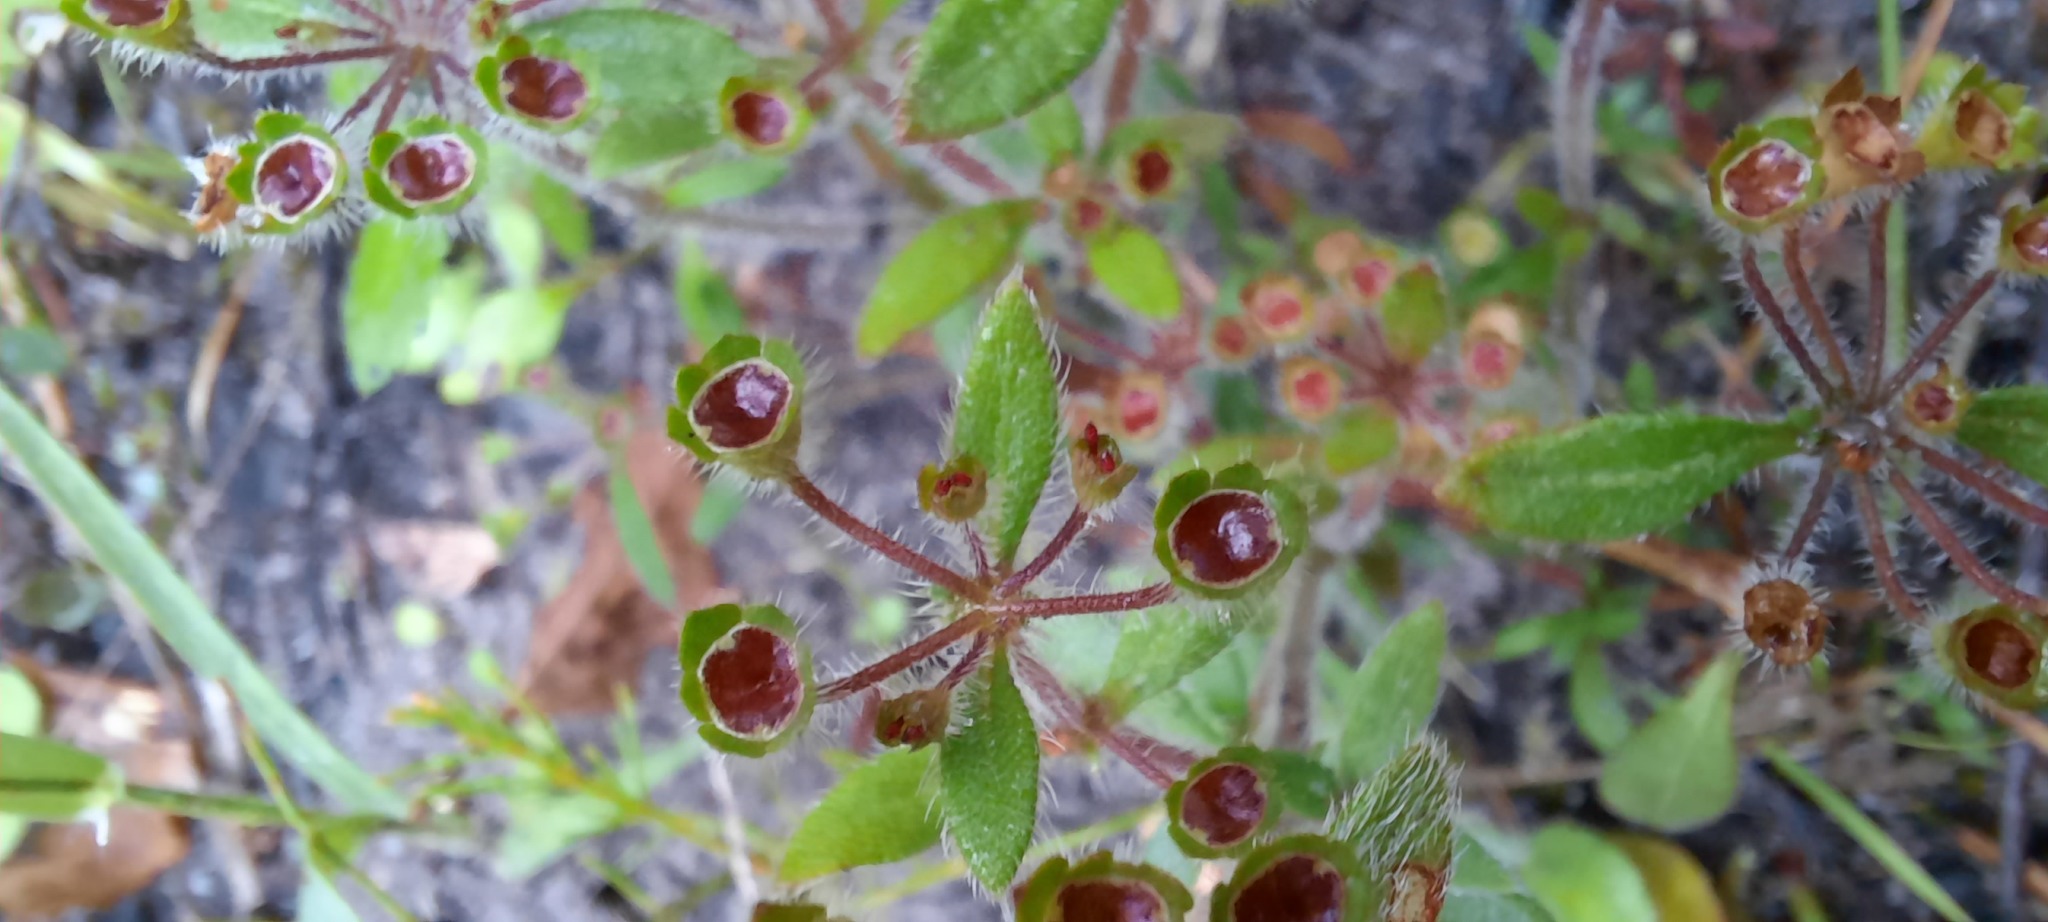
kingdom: Plantae
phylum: Tracheophyta
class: Magnoliopsida
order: Gentianales
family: Rubiaceae
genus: Pomax
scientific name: Pomax umbellata
